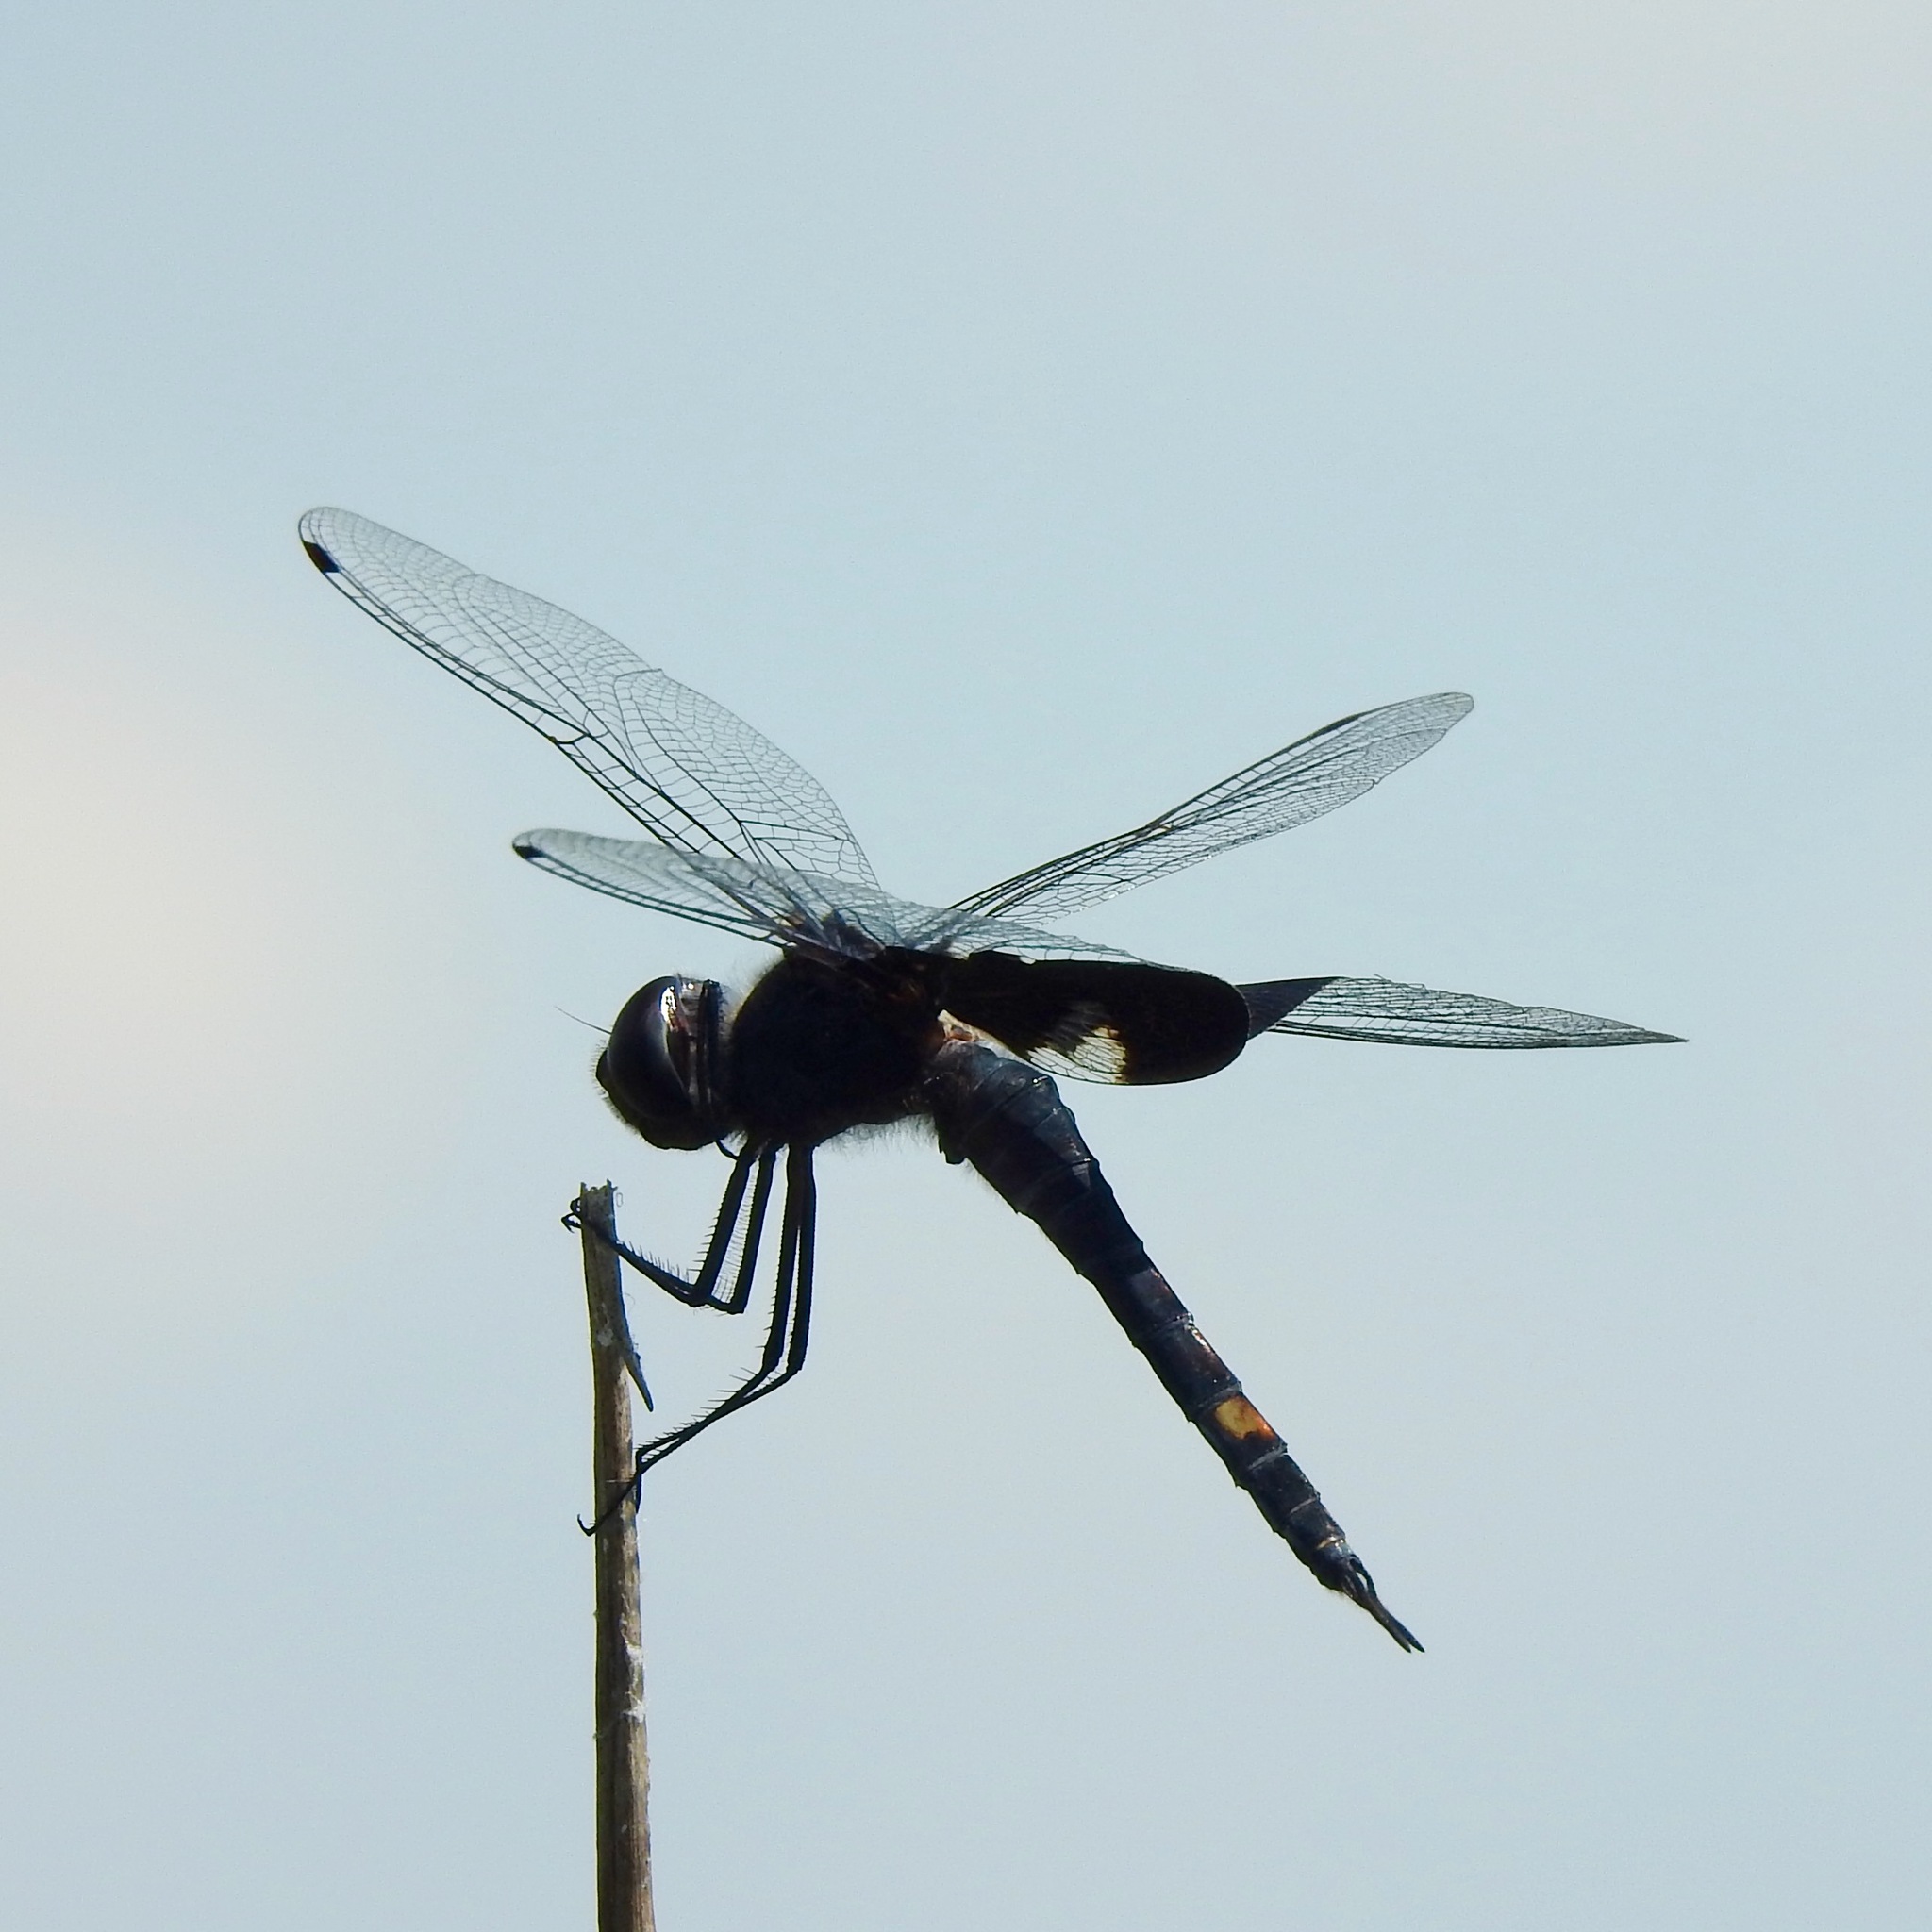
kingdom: Animalia
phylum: Arthropoda
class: Insecta
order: Odonata
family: Libellulidae
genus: Tramea
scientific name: Tramea lacerata
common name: Black saddlebags
